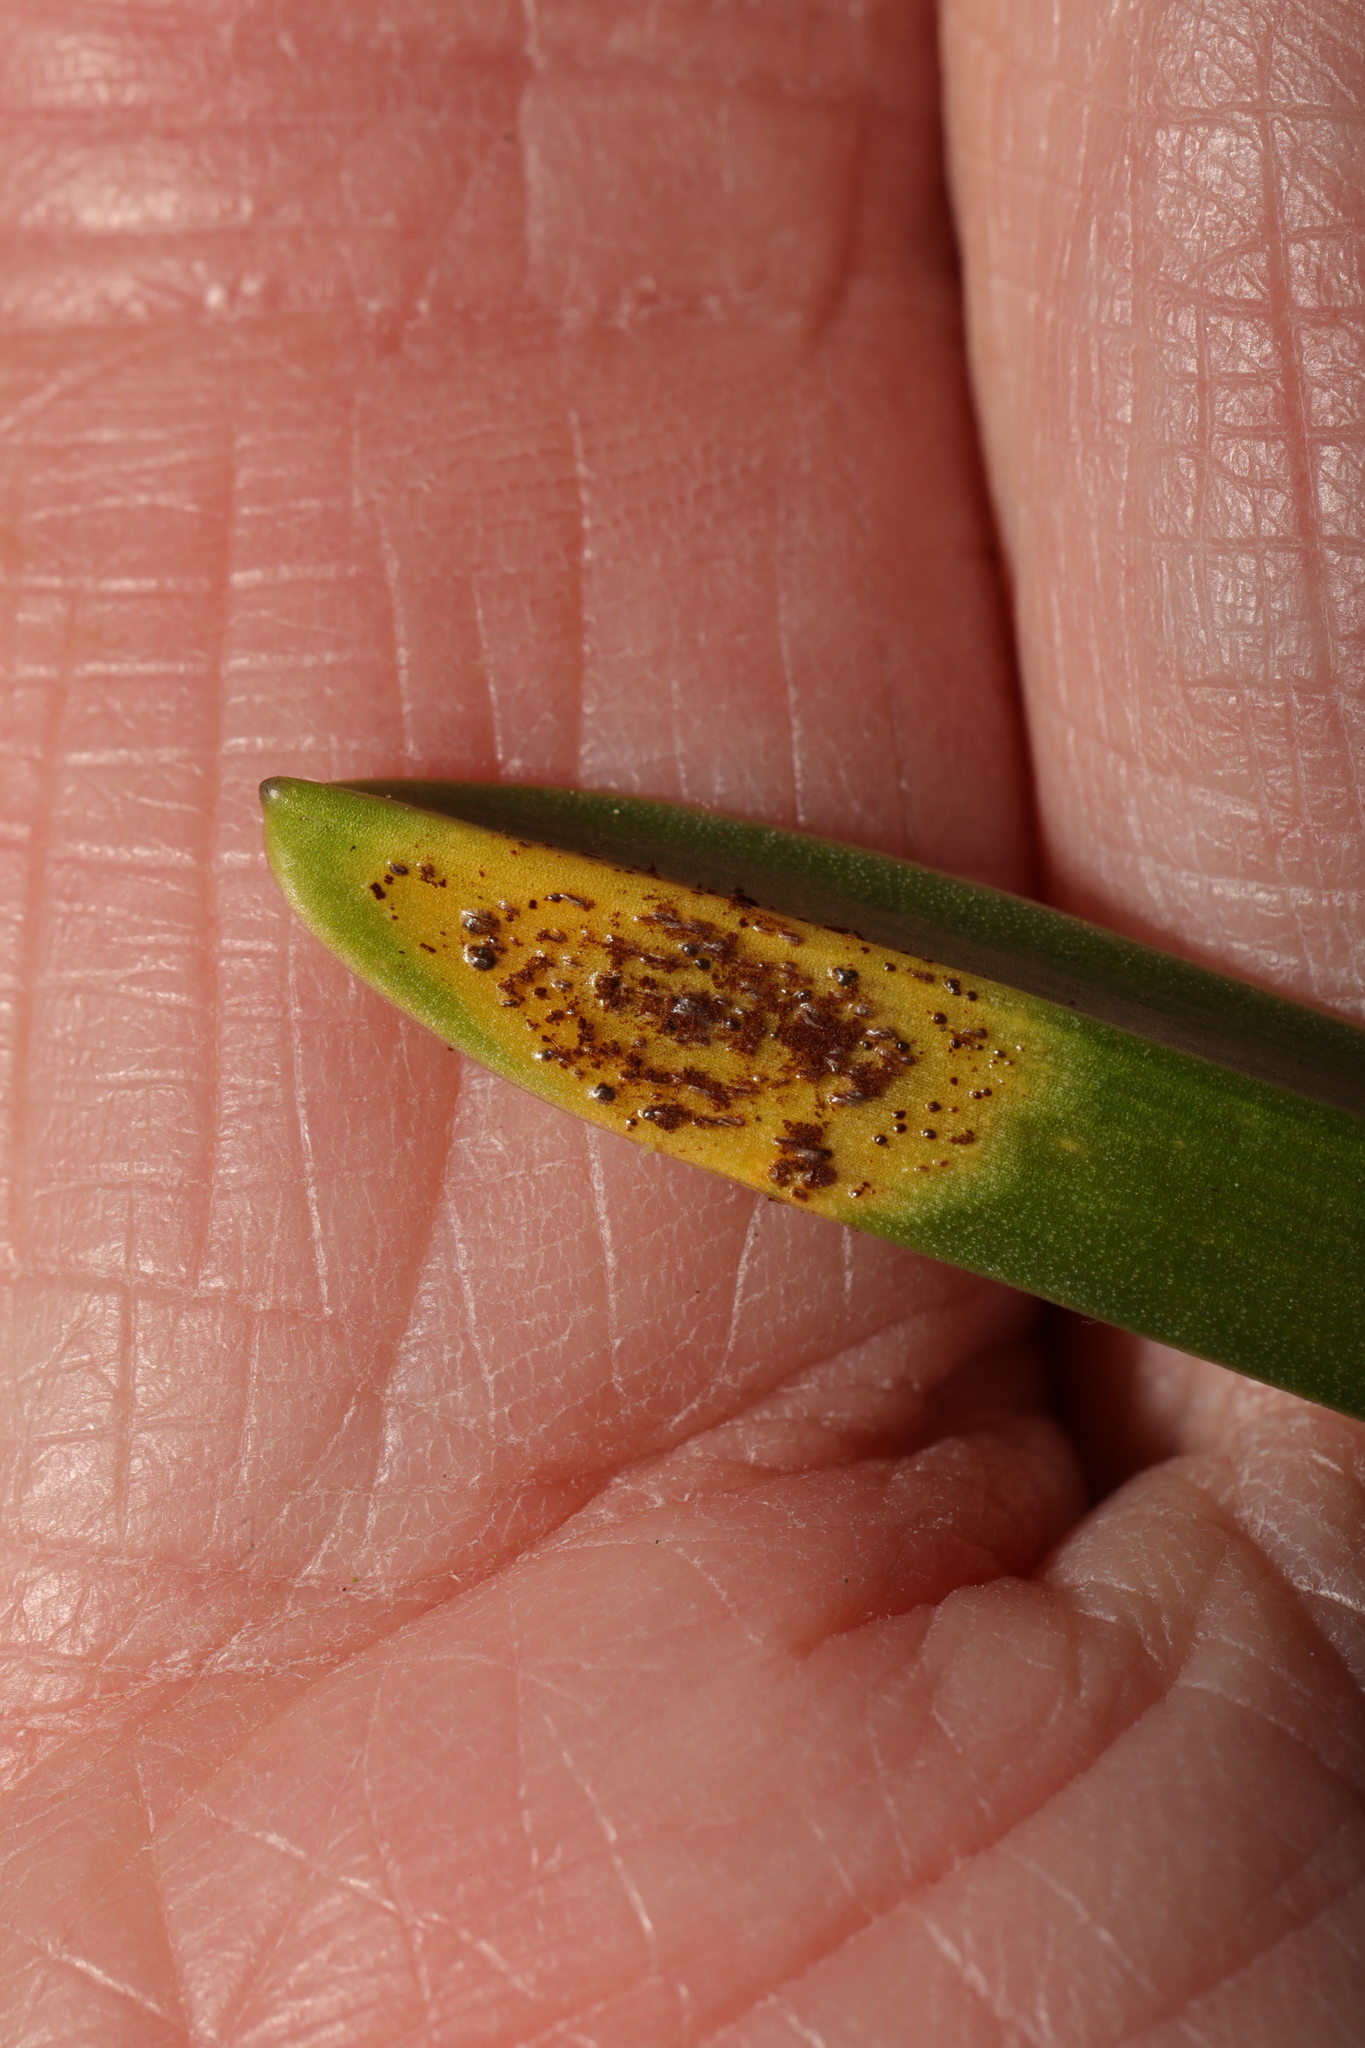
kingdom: Fungi
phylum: Basidiomycota
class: Pucciniomycetes
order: Pucciniales
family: Pucciniaceae
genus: Uromyces
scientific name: Uromyces hyacinthi
